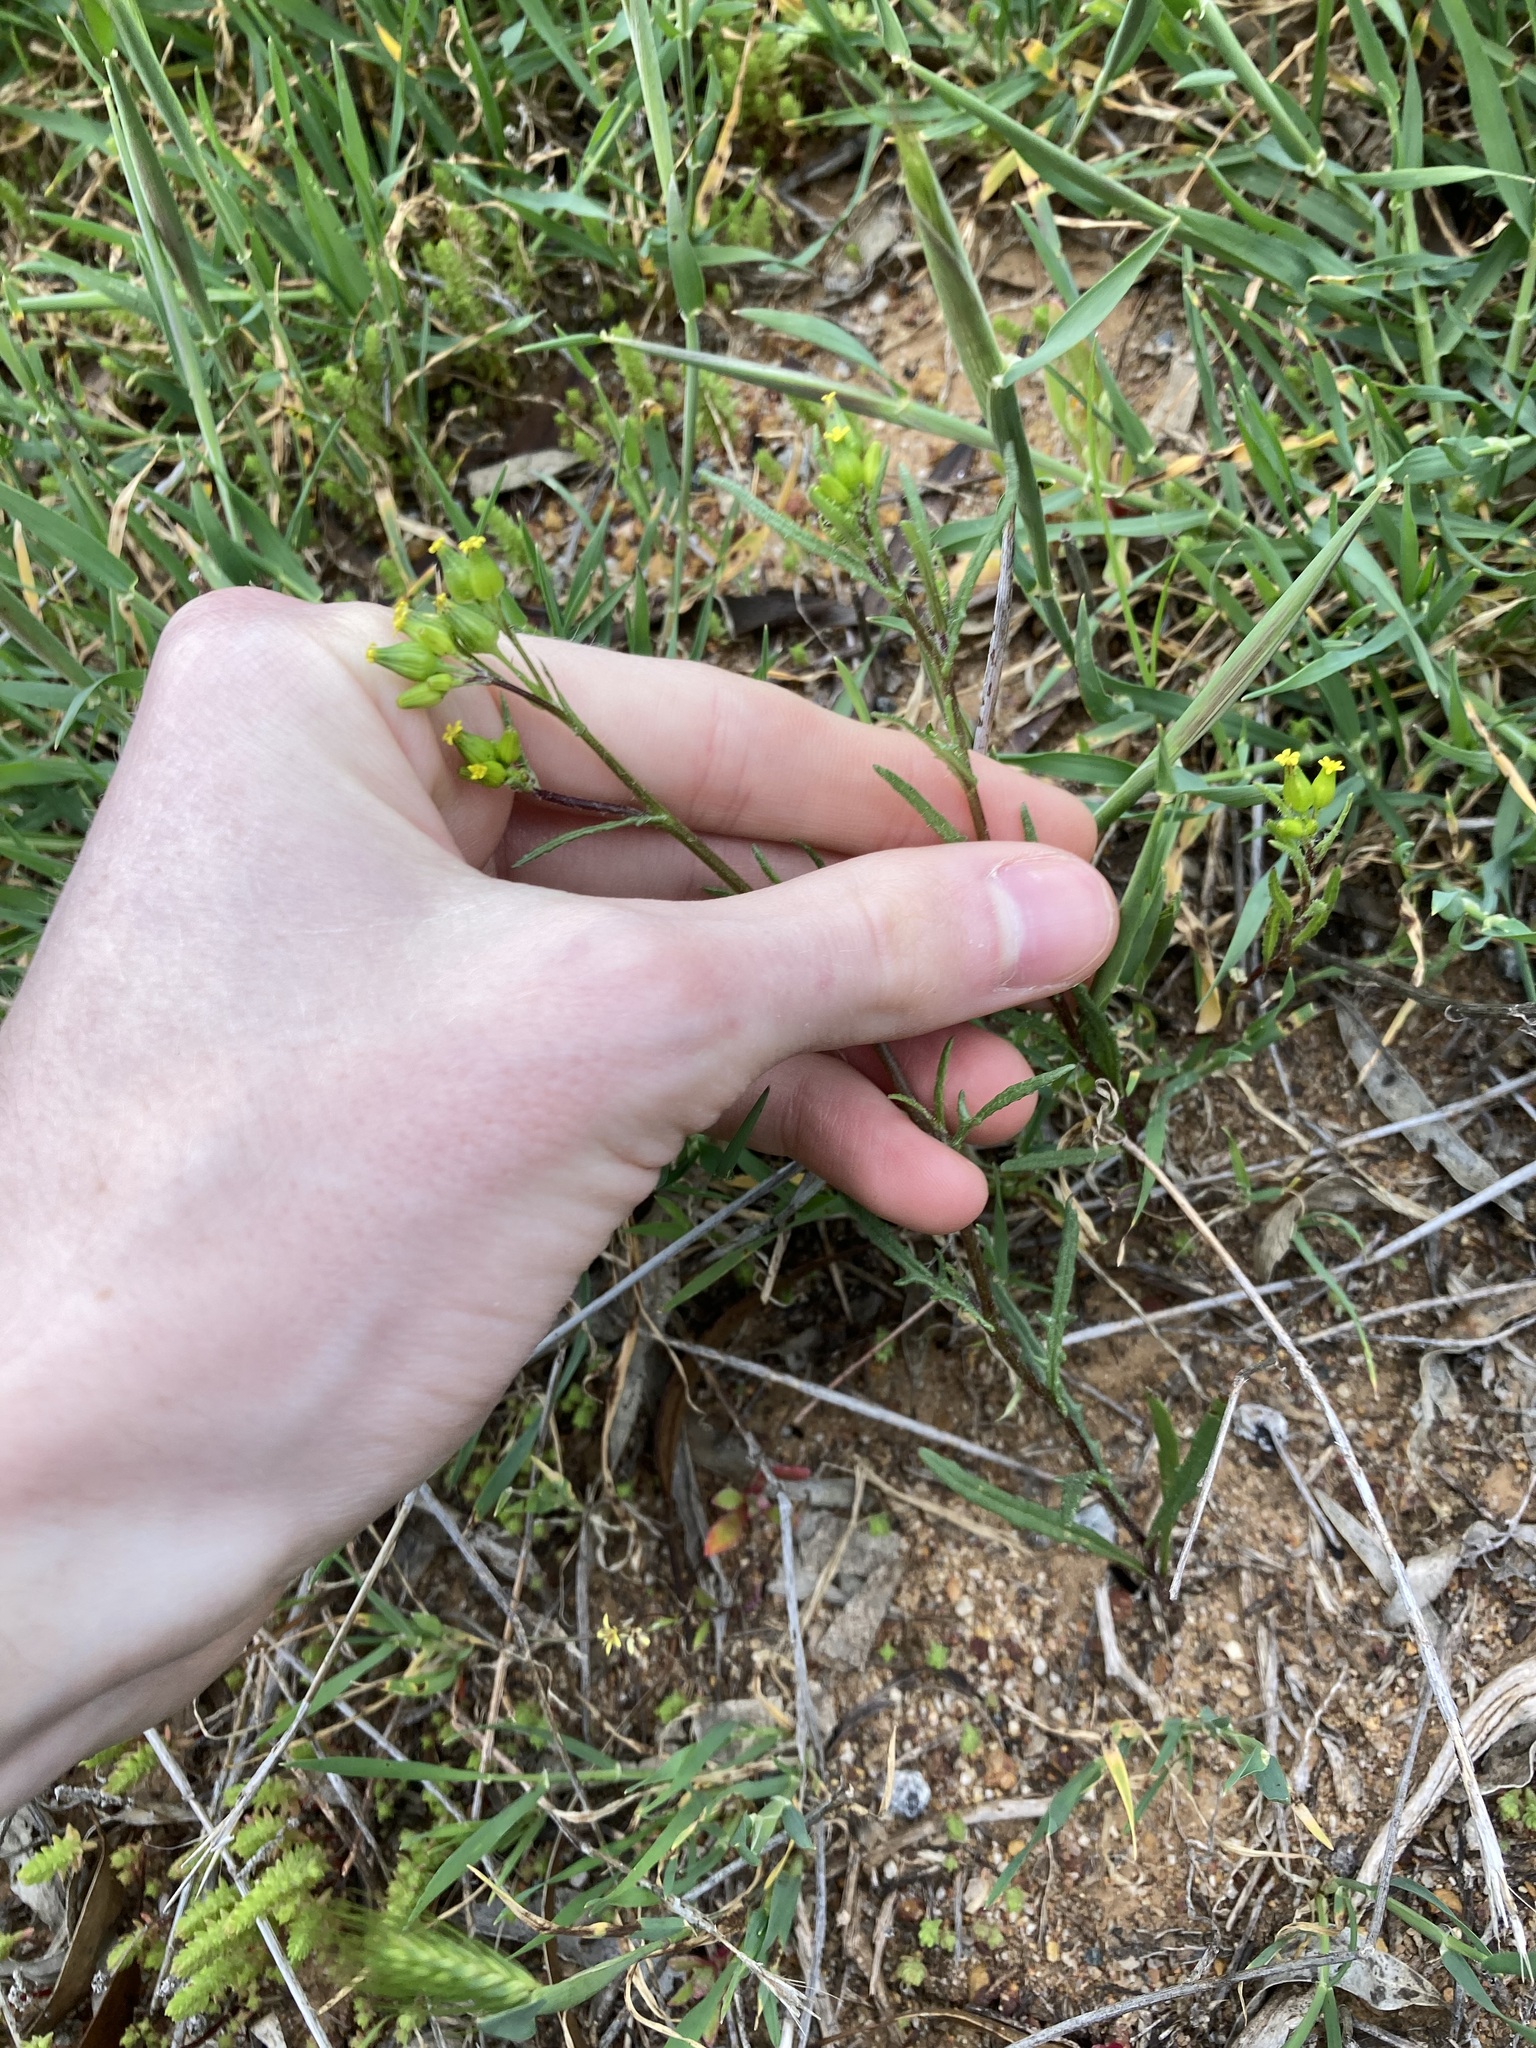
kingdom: Plantae
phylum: Tracheophyta
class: Magnoliopsida
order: Asterales
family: Asteraceae
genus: Senecio
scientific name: Senecio glossanthus
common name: Slender groundsel
